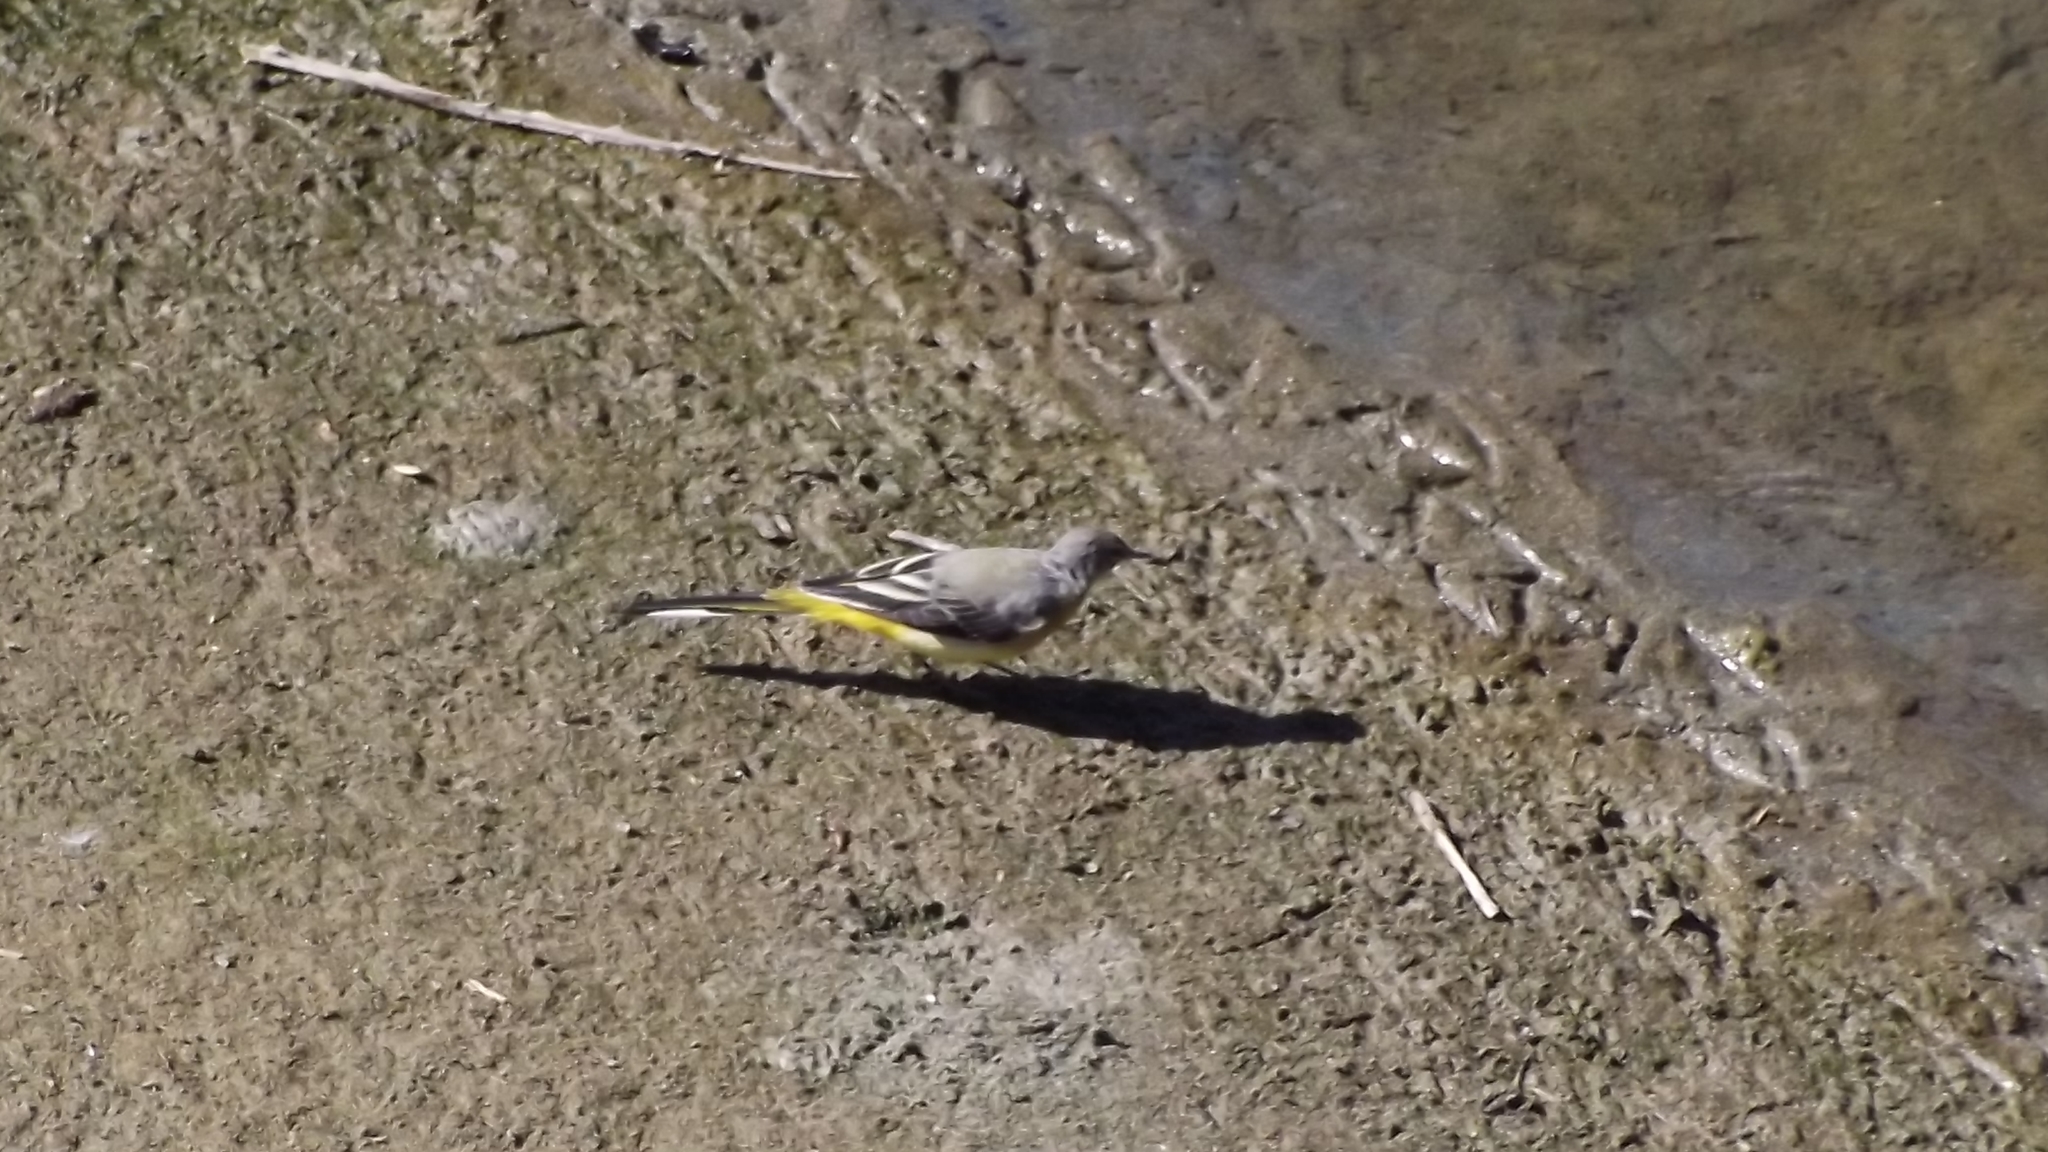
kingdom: Animalia
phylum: Chordata
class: Aves
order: Passeriformes
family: Motacillidae
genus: Motacilla
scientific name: Motacilla cinerea
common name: Grey wagtail
